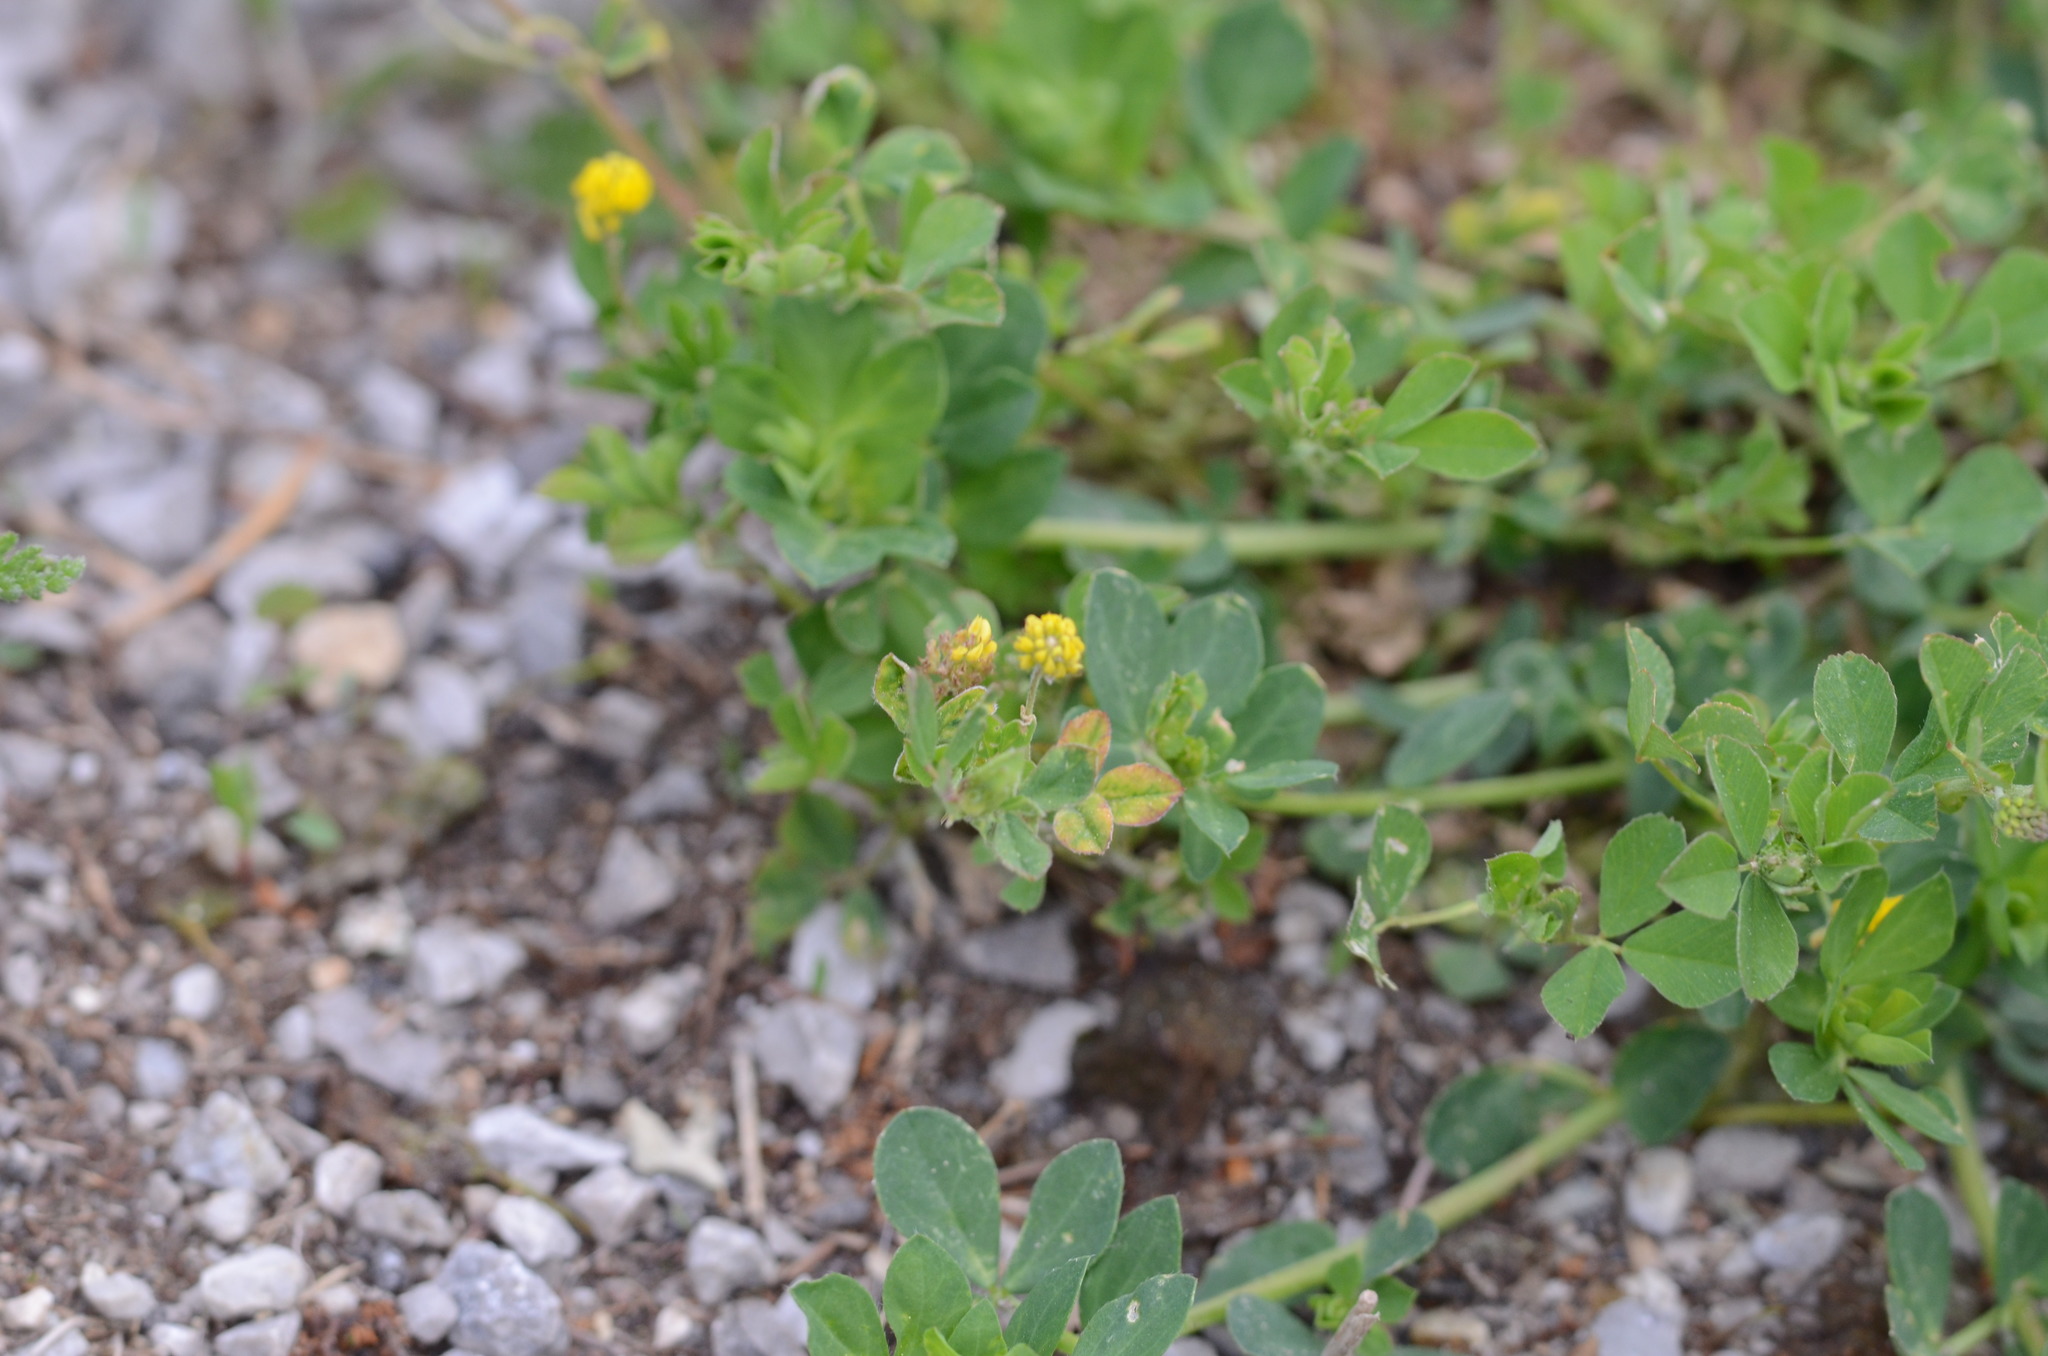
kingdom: Plantae
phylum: Tracheophyta
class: Magnoliopsida
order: Fabales
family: Fabaceae
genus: Medicago
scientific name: Medicago lupulina
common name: Black medick
